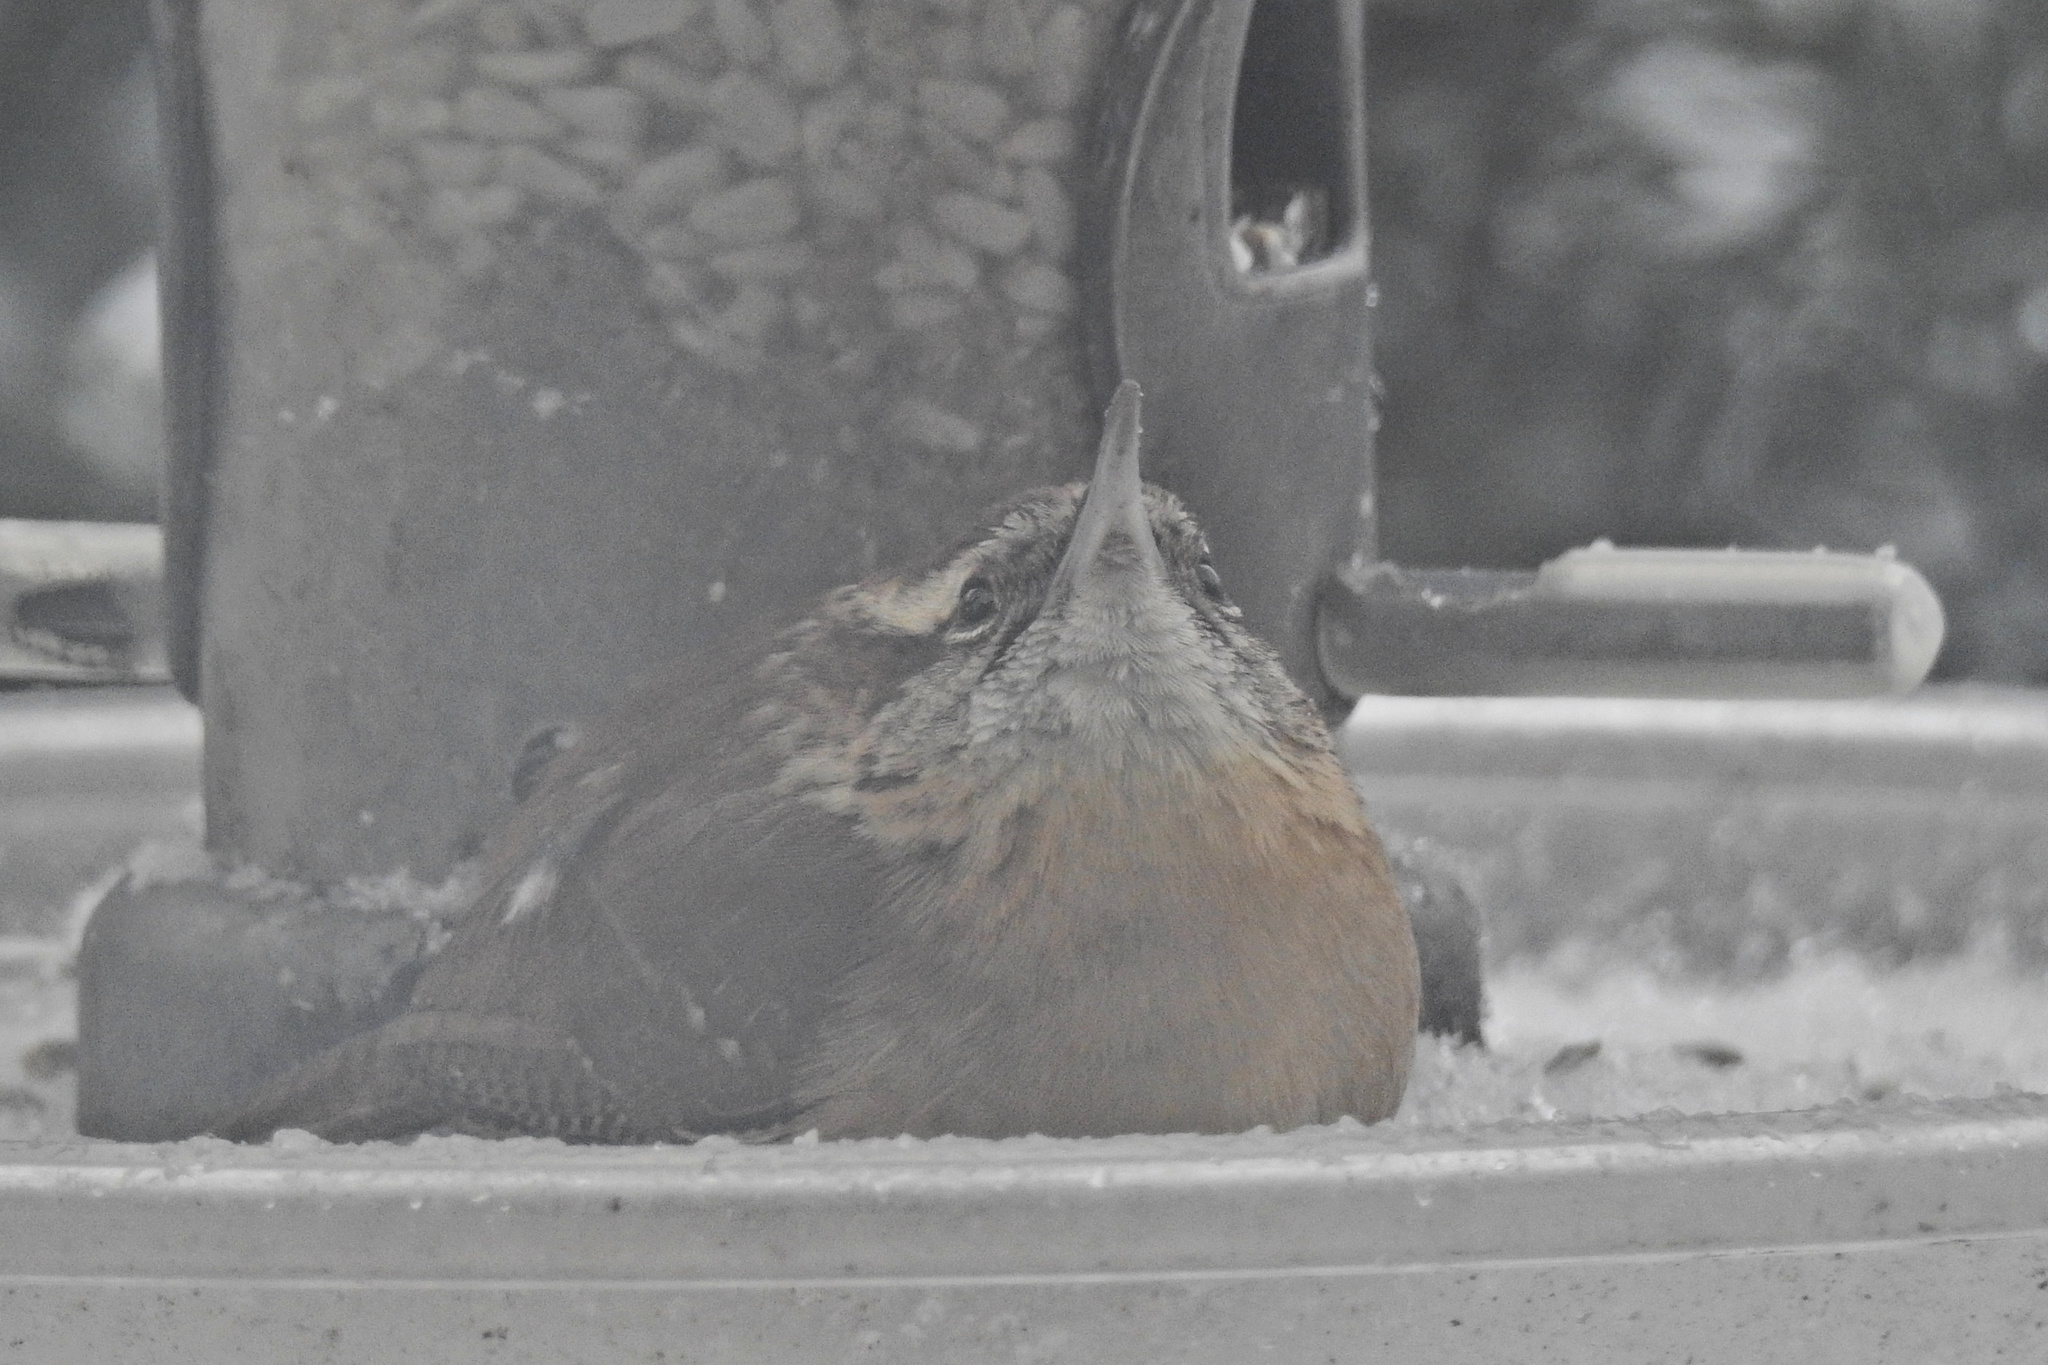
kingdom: Animalia
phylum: Chordata
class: Aves
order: Passeriformes
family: Troglodytidae
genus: Thryothorus
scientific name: Thryothorus ludovicianus
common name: Carolina wren
